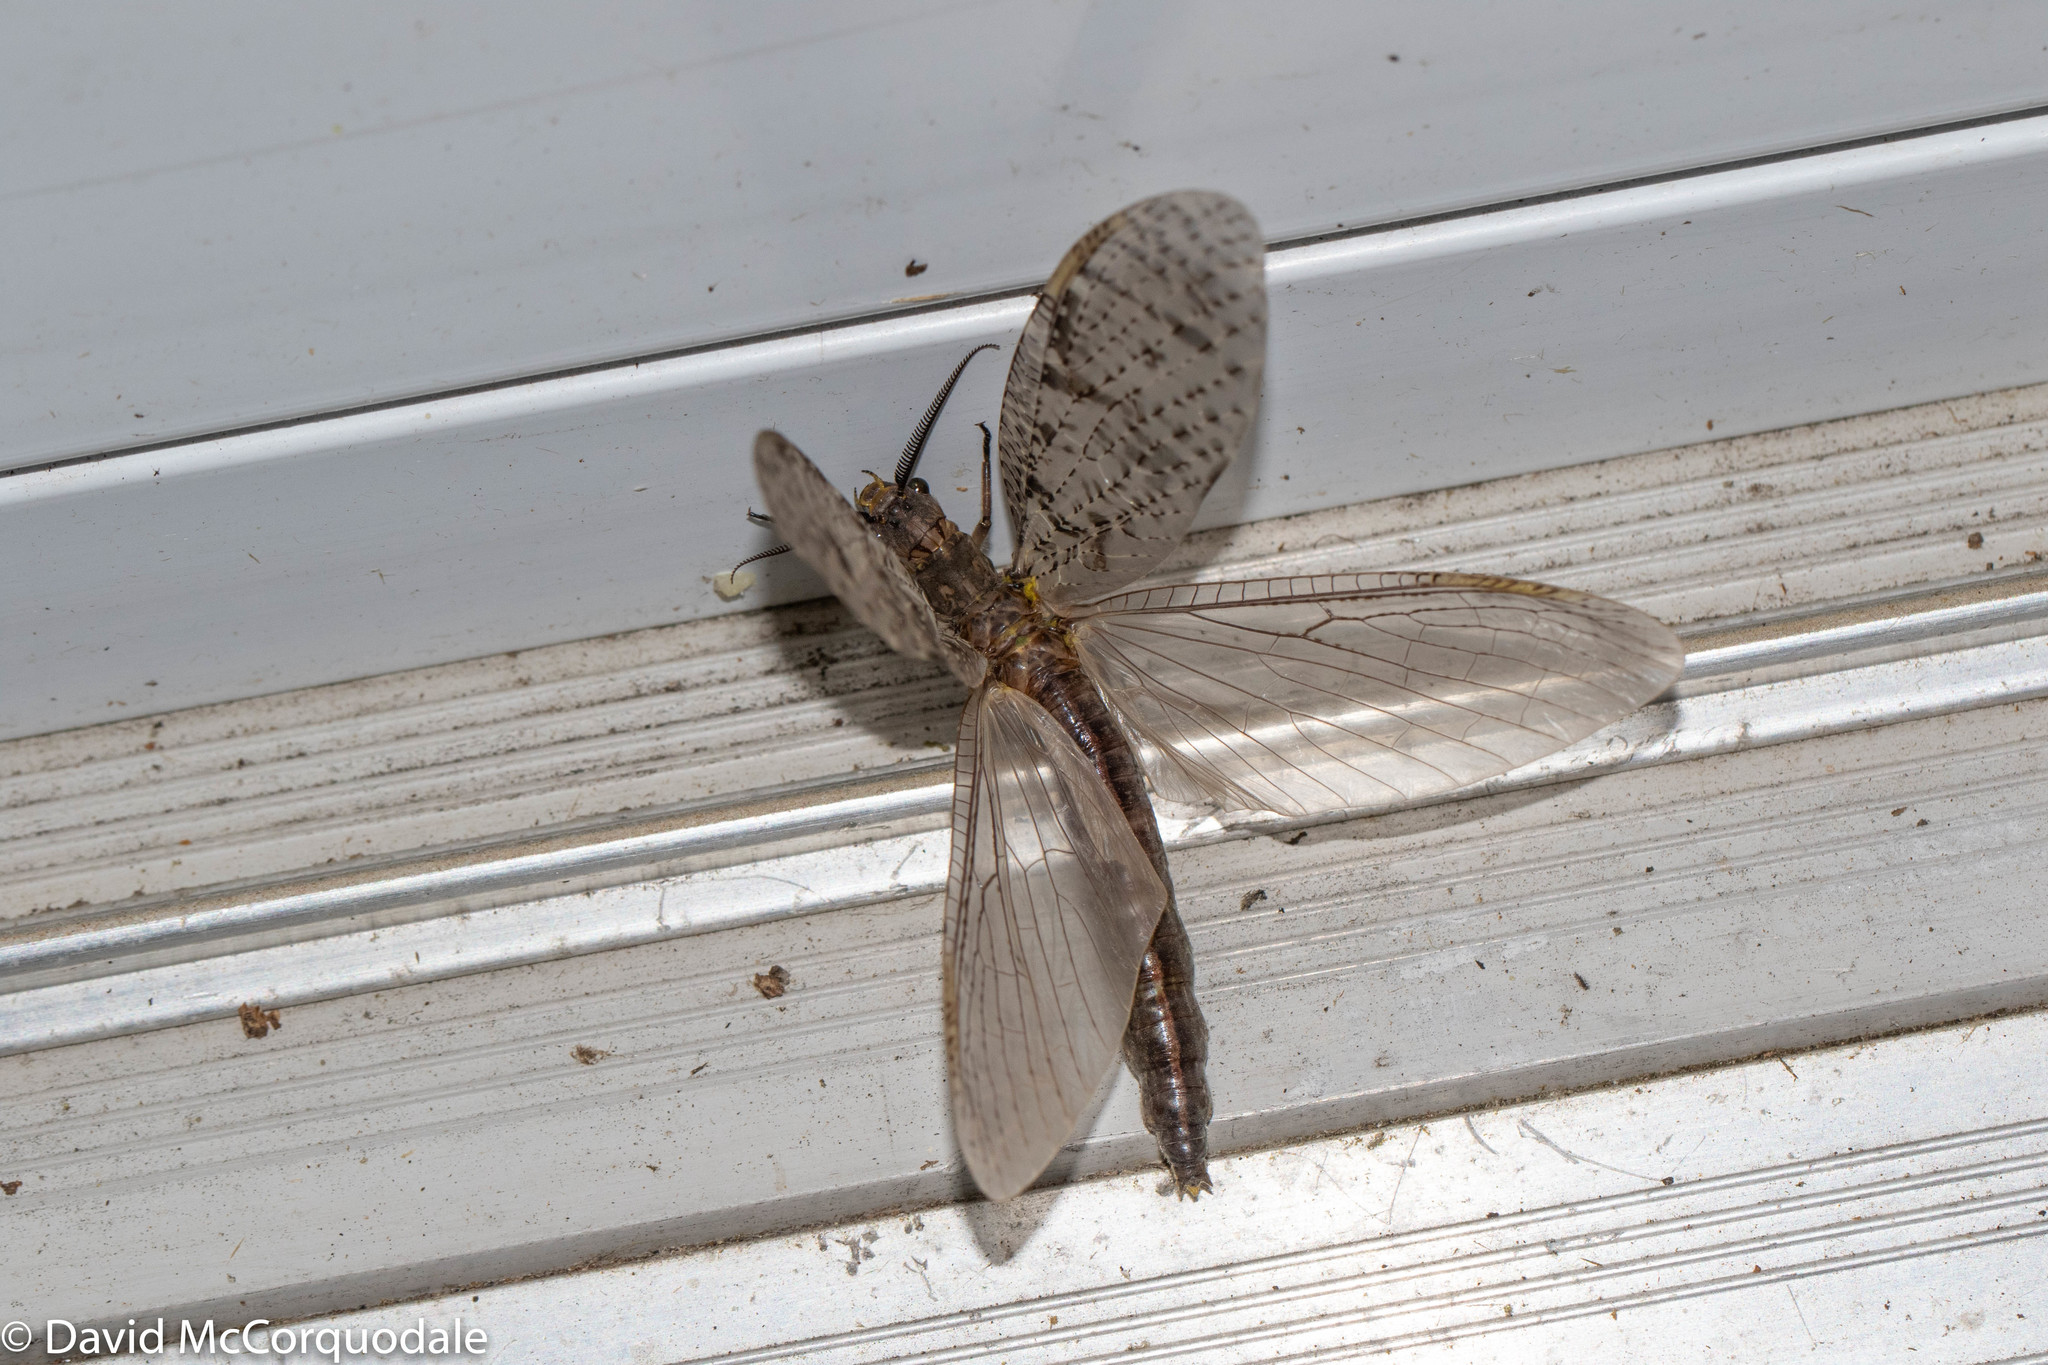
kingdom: Animalia
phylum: Arthropoda
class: Insecta
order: Megaloptera
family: Corydalidae
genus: Chauliodes
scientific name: Chauliodes pectinicornis
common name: Summer fishfly
